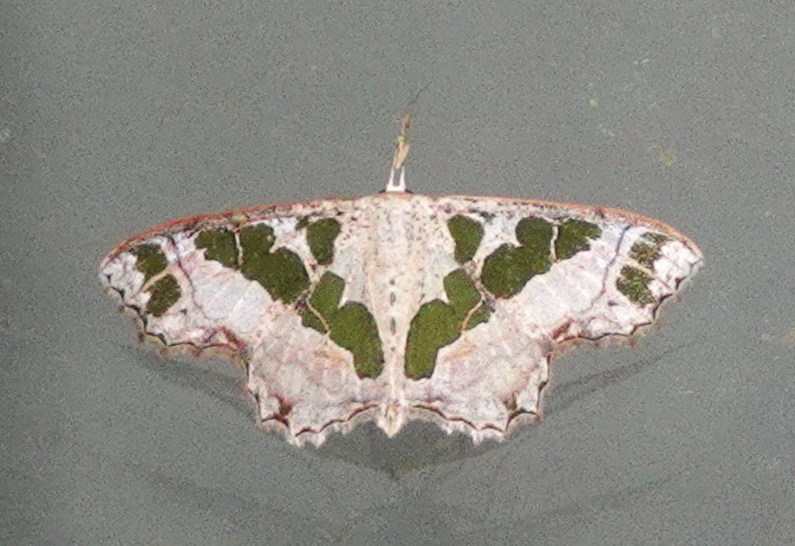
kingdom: Animalia
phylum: Arthropoda
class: Insecta
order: Lepidoptera
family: Geometridae
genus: Scopula
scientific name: Scopula divisaria
